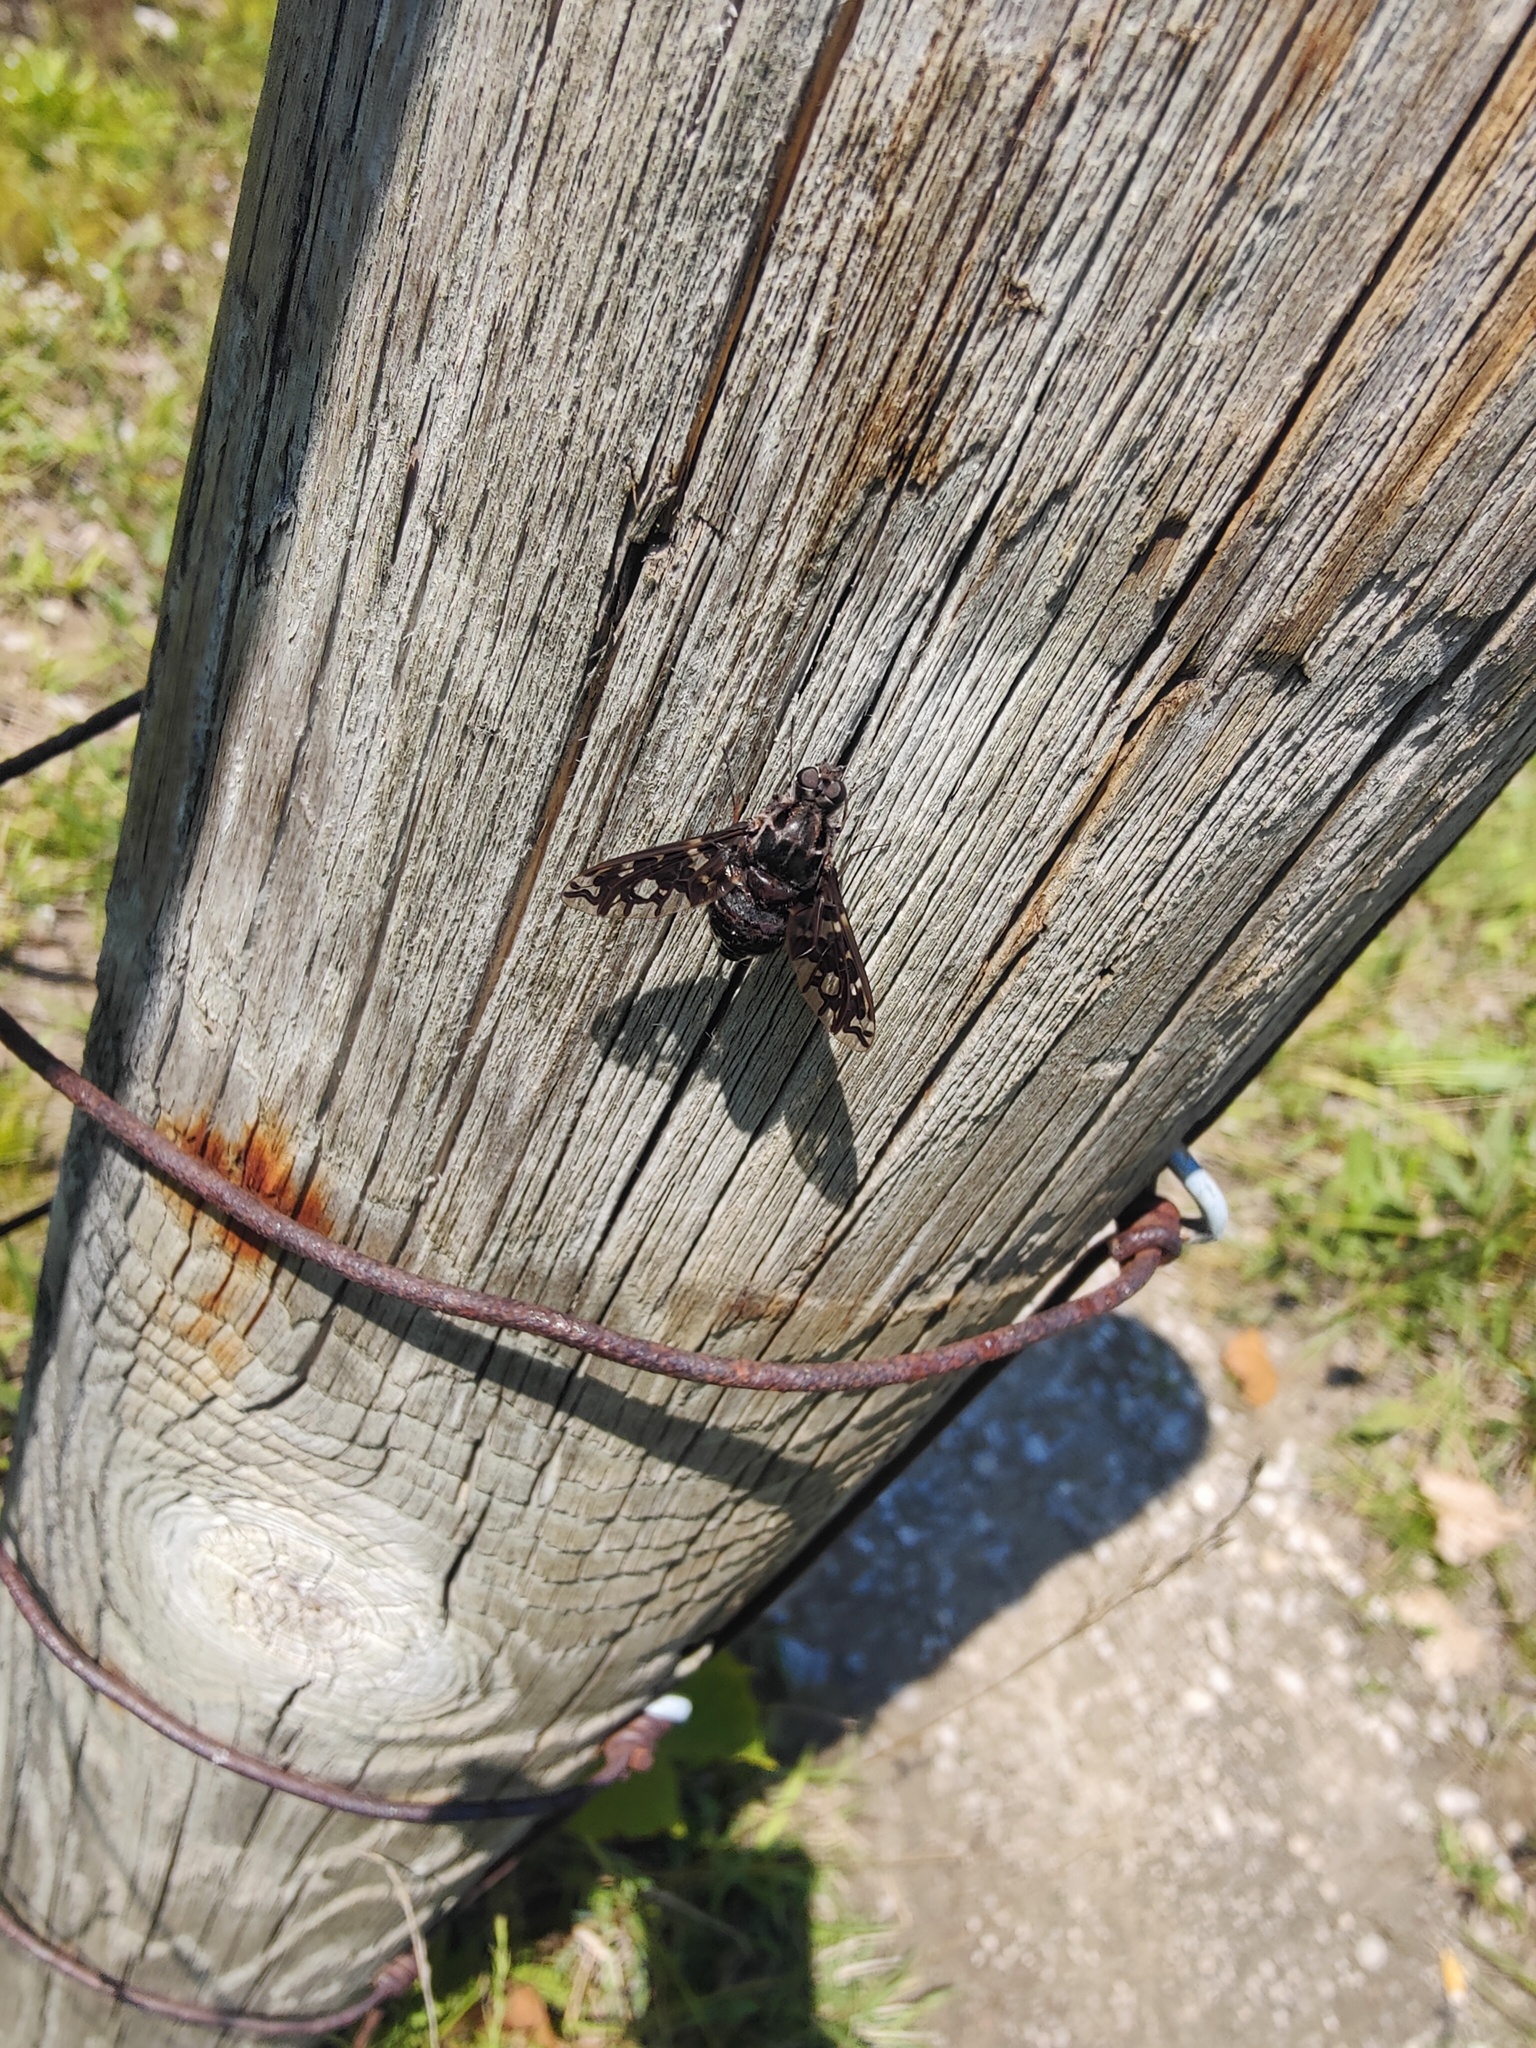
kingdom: Animalia
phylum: Arthropoda
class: Insecta
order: Diptera
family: Bombyliidae
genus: Xenox
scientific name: Xenox tigrinus
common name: Tiger bee fly
